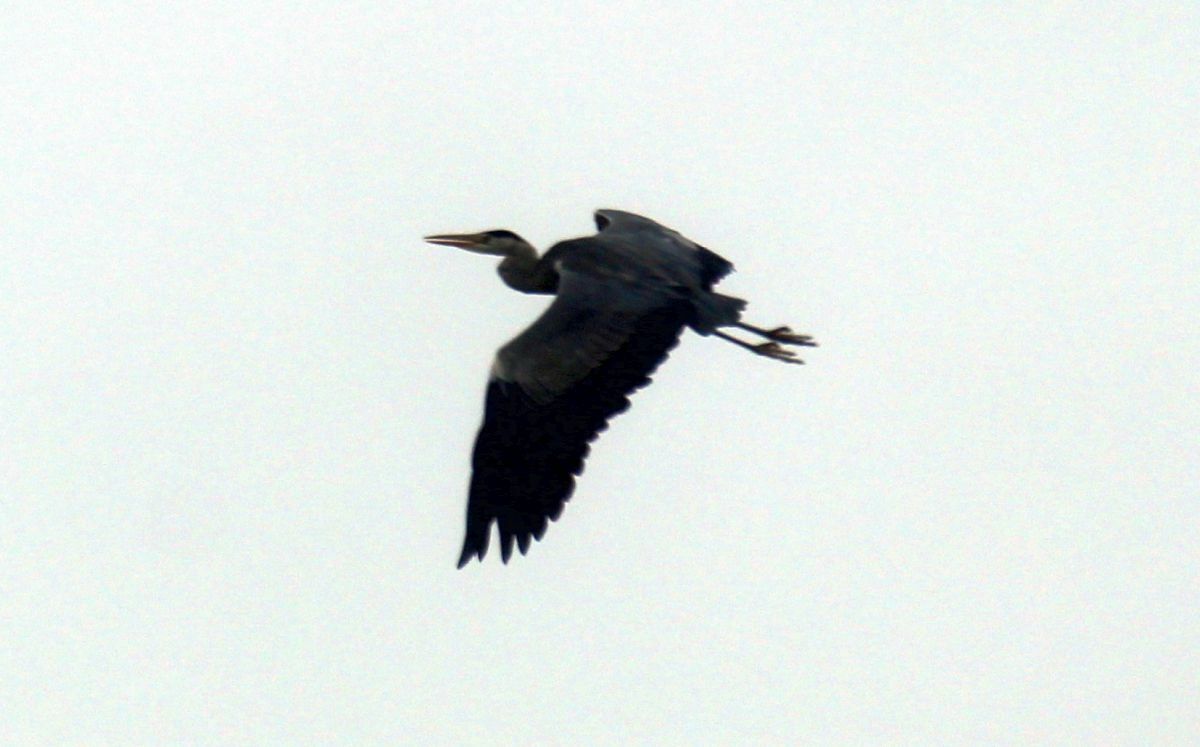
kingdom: Animalia
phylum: Chordata
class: Aves
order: Pelecaniformes
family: Ardeidae
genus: Ardea
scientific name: Ardea cinerea
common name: Grey heron
